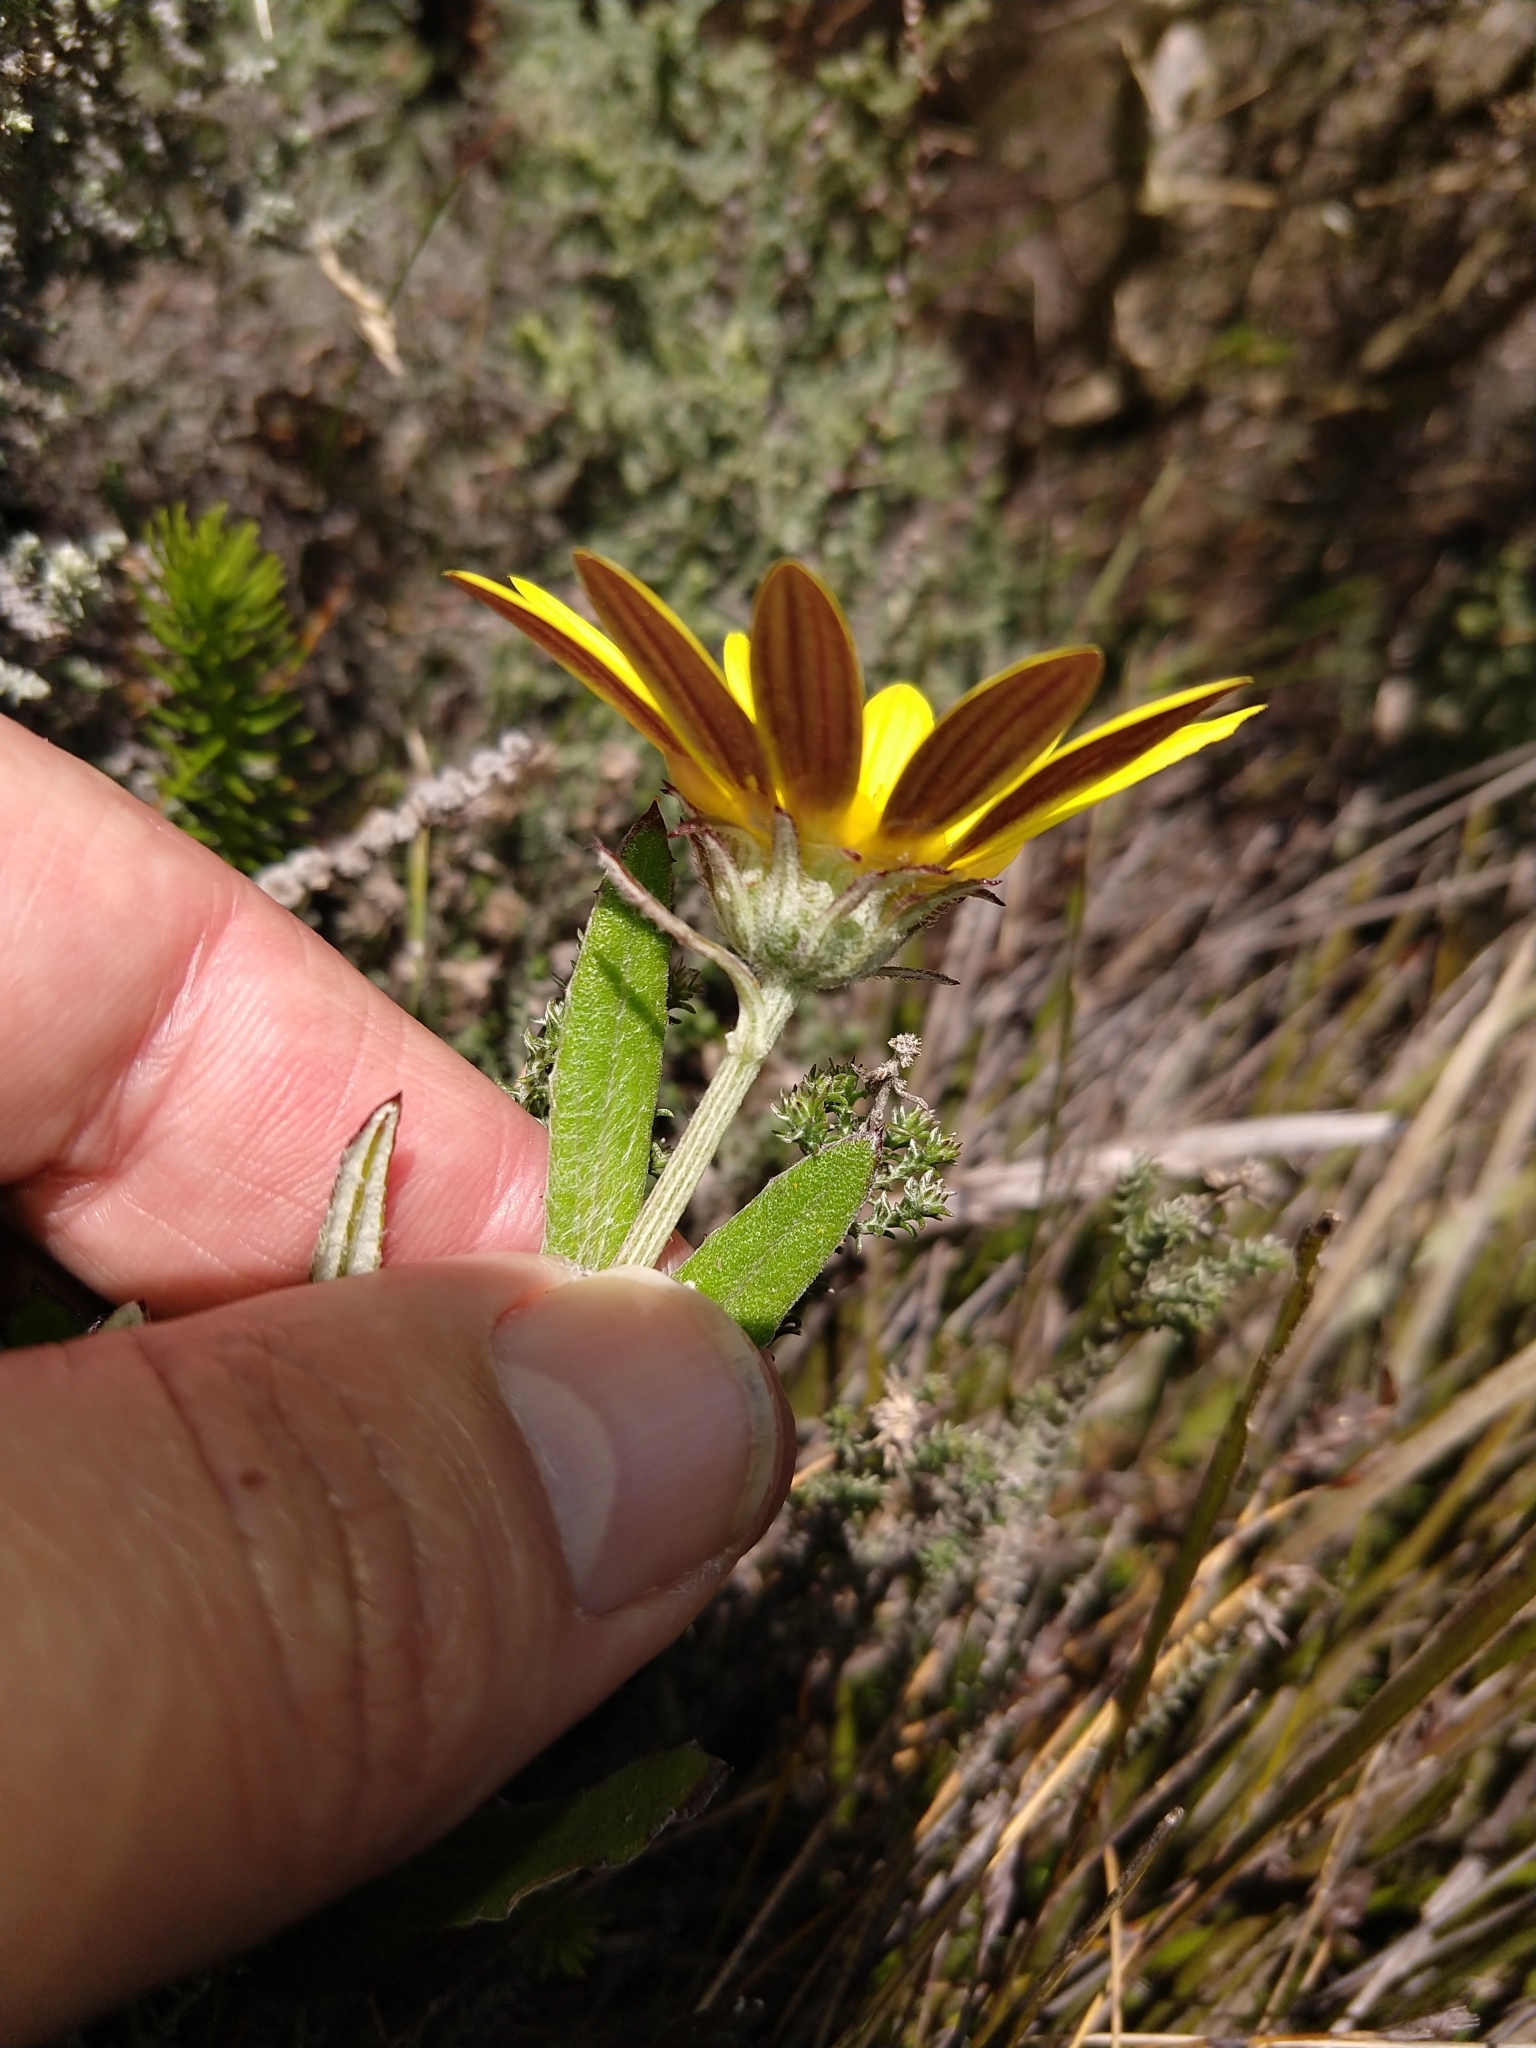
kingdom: Plantae
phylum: Tracheophyta
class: Magnoliopsida
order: Asterales
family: Asteraceae
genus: Arctotis
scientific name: Arctotis scabra
